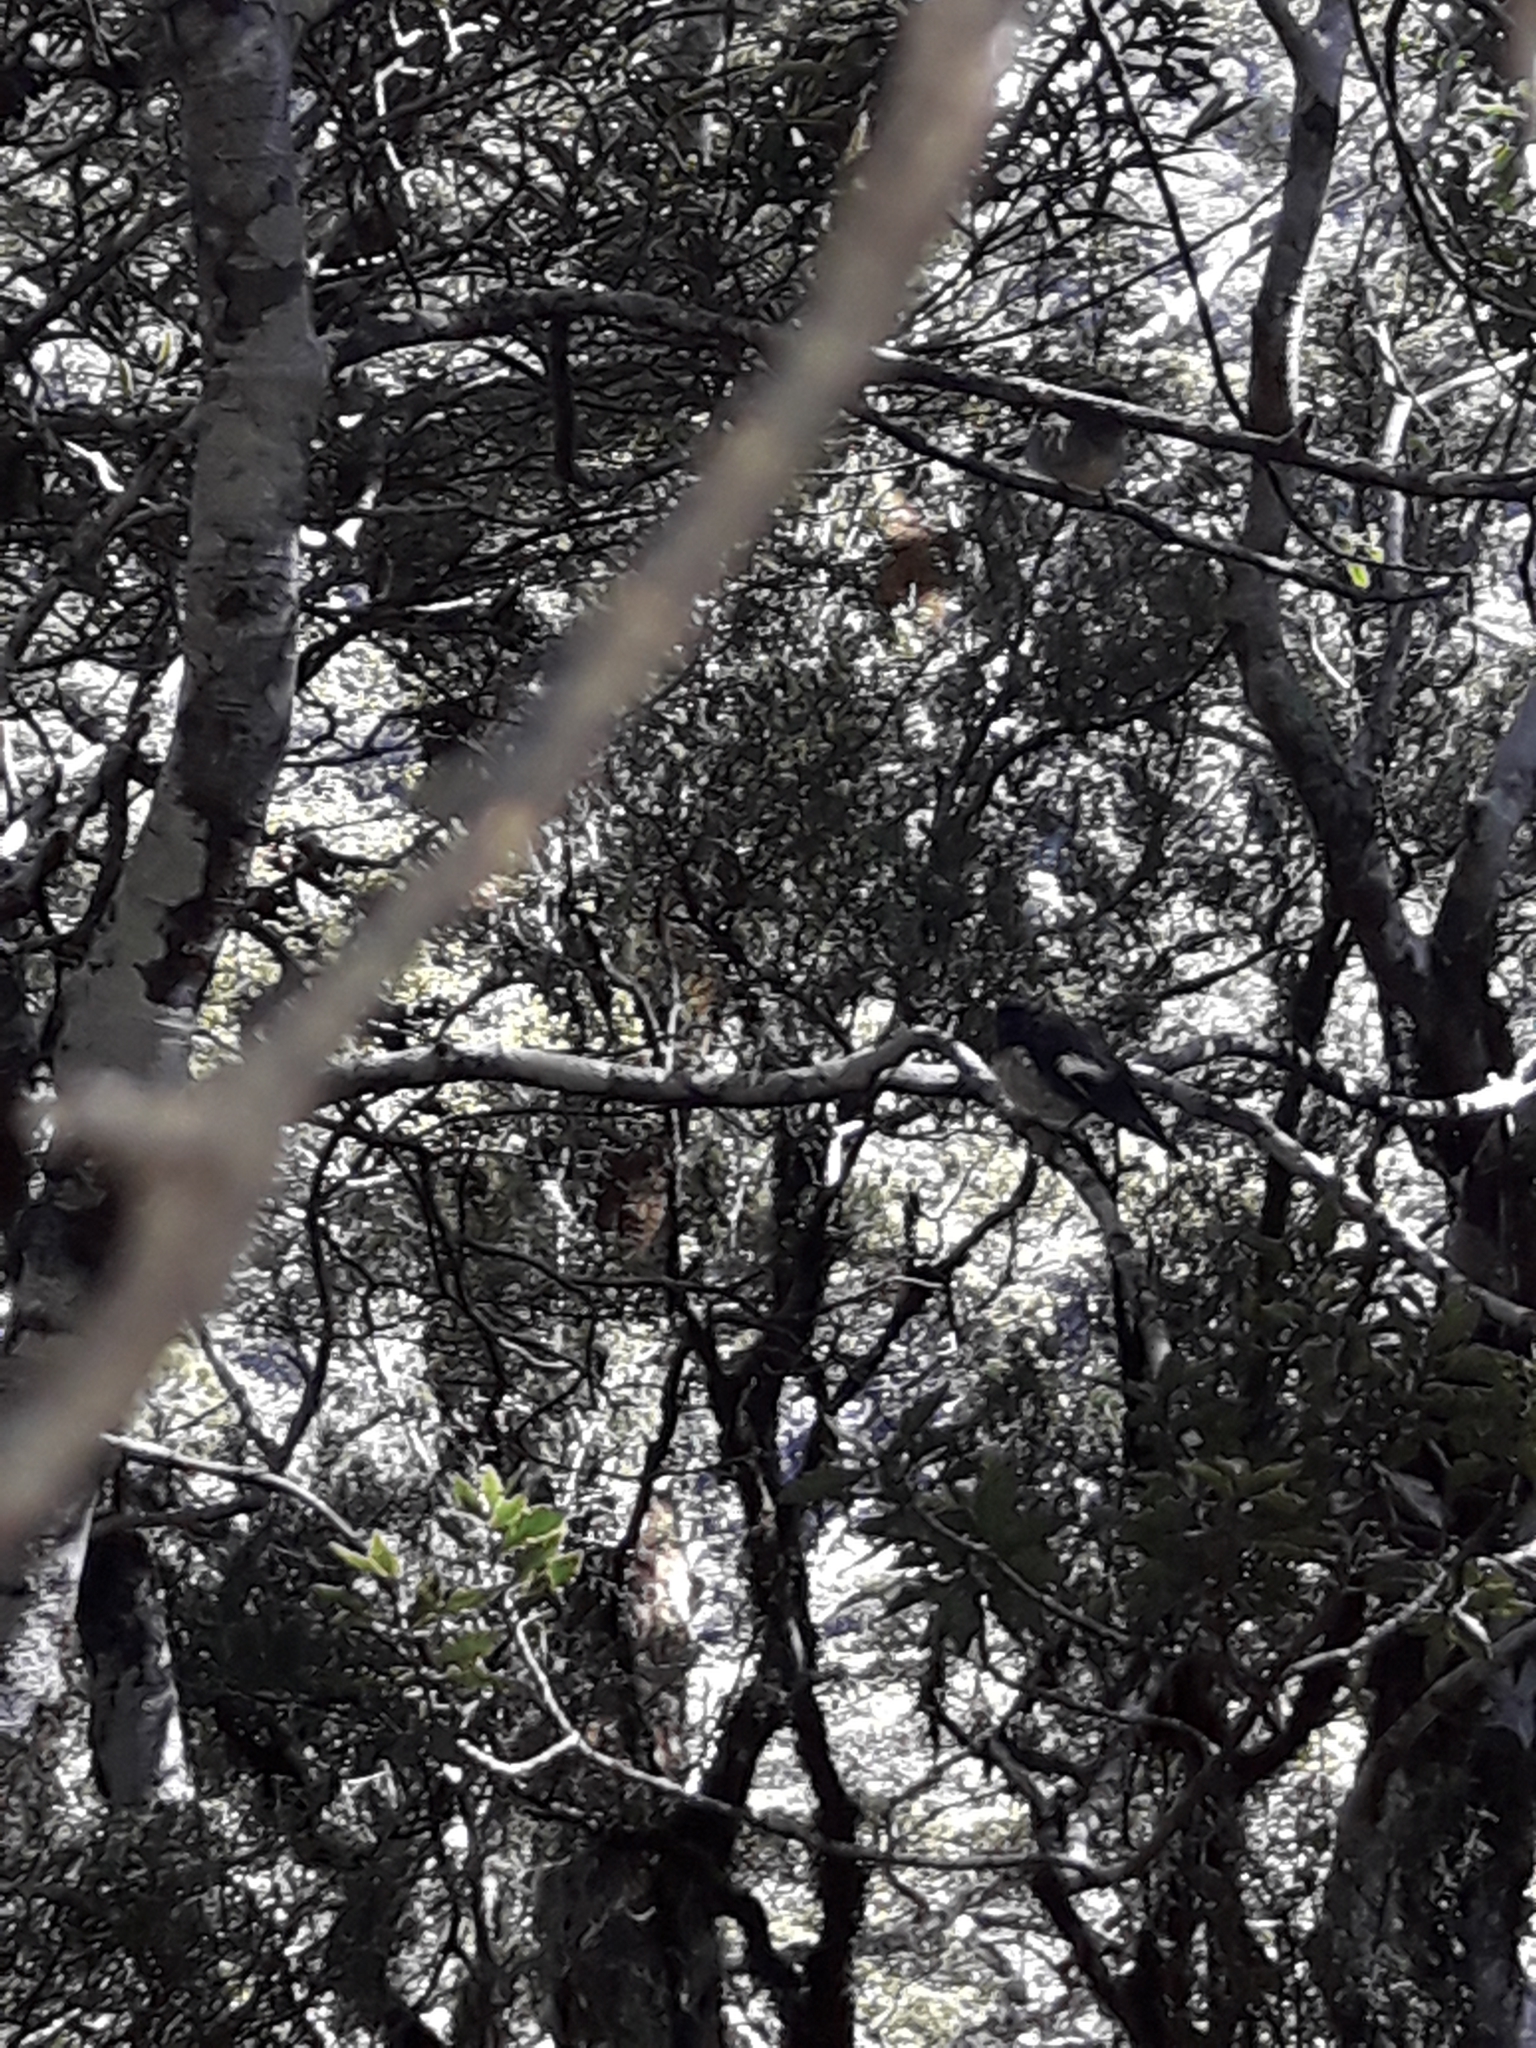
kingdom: Animalia
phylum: Chordata
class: Aves
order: Passeriformes
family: Petroicidae
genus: Petroica
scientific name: Petroica macrocephala
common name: Tomtit
